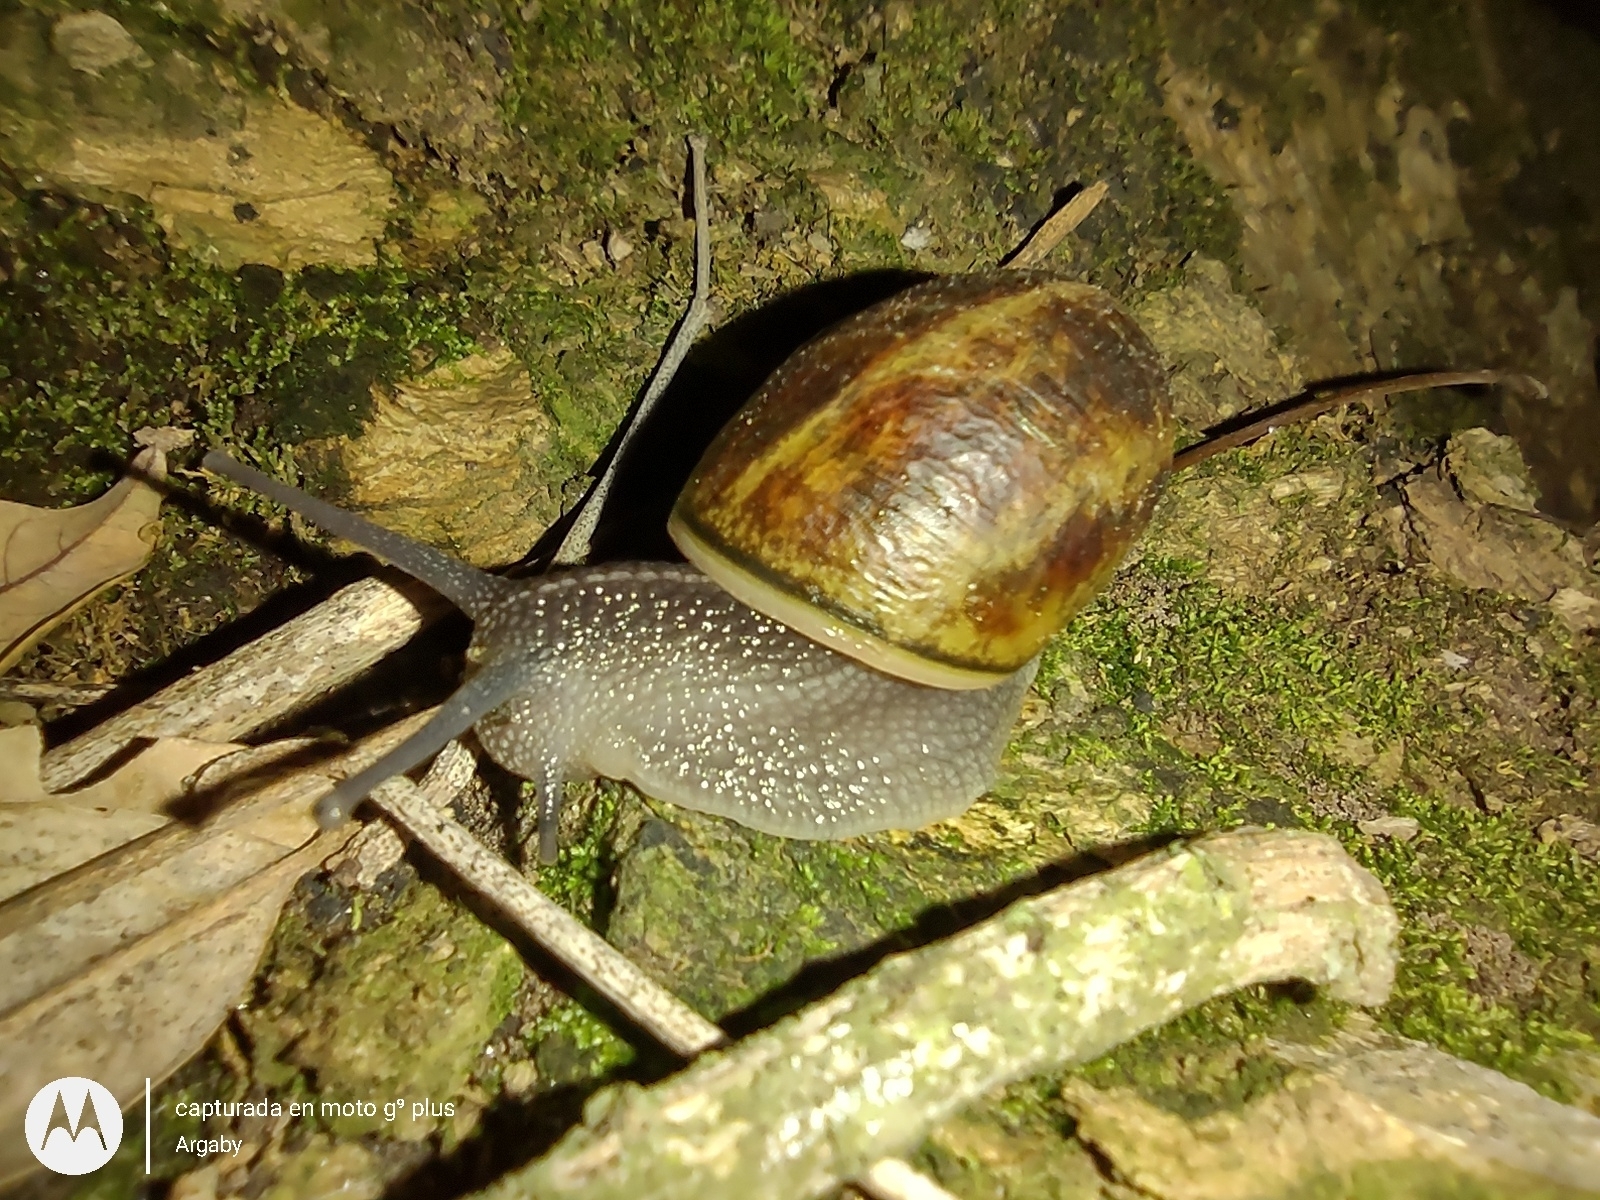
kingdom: Animalia
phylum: Mollusca
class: Gastropoda
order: Stylommatophora
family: Helicidae
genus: Cornu
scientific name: Cornu aspersum
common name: Brown garden snail
